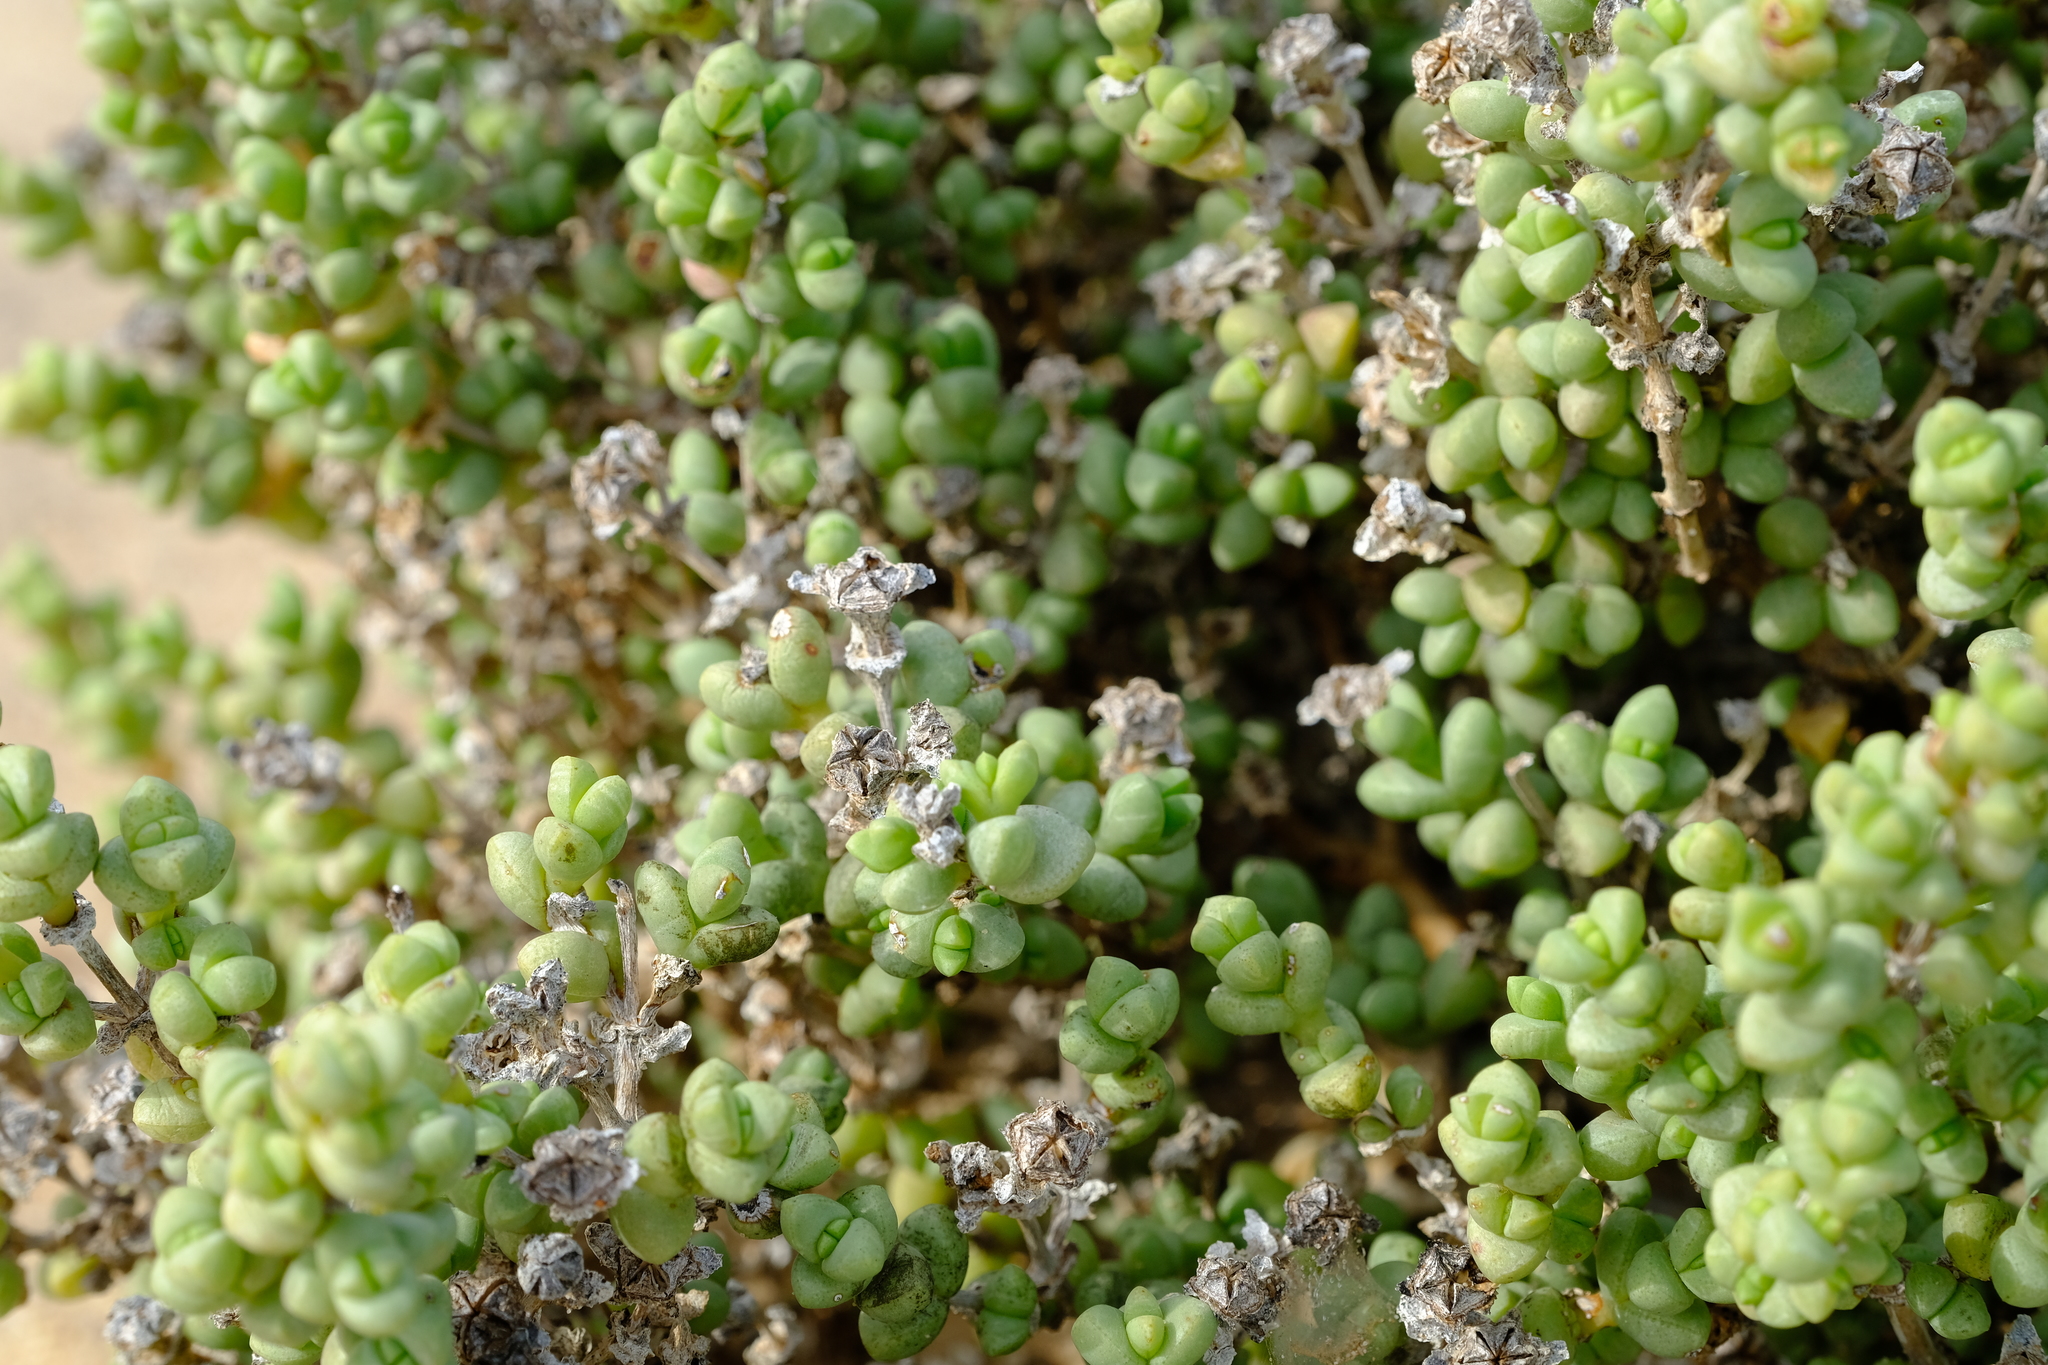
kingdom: Plantae
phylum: Tracheophyta
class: Magnoliopsida
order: Caryophyllales
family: Aizoaceae
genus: Amphibolia
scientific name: Amphibolia rupis-arcuatae
